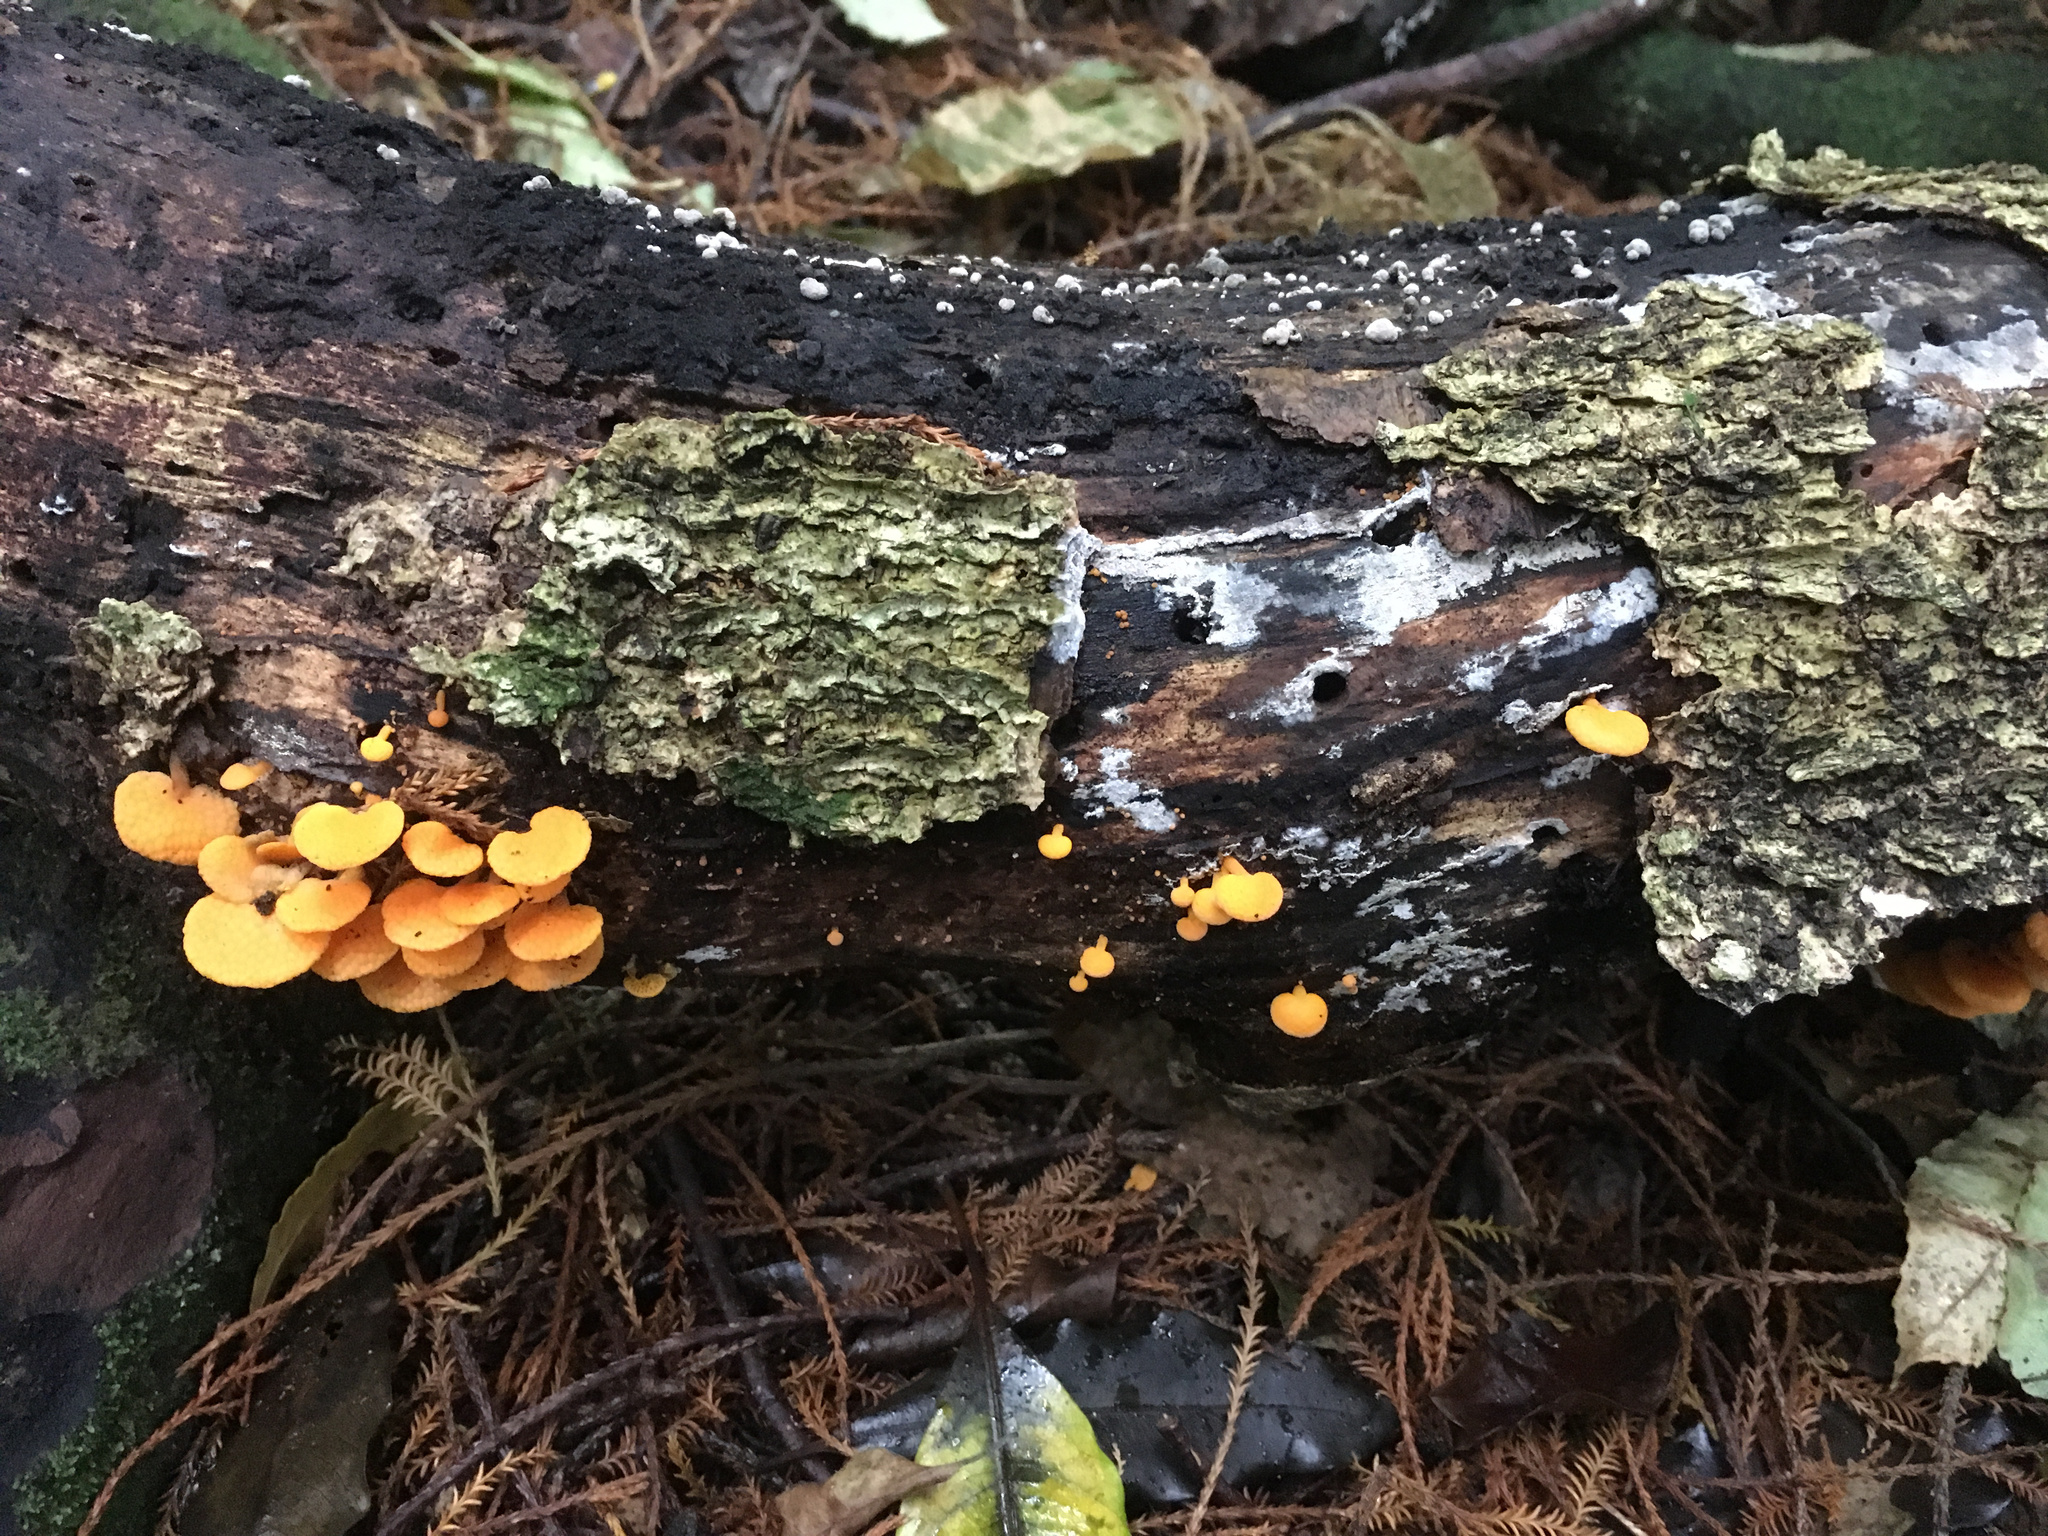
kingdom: Fungi
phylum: Basidiomycota
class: Agaricomycetes
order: Agaricales
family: Mycenaceae
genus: Favolaschia
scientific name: Favolaschia claudopus
